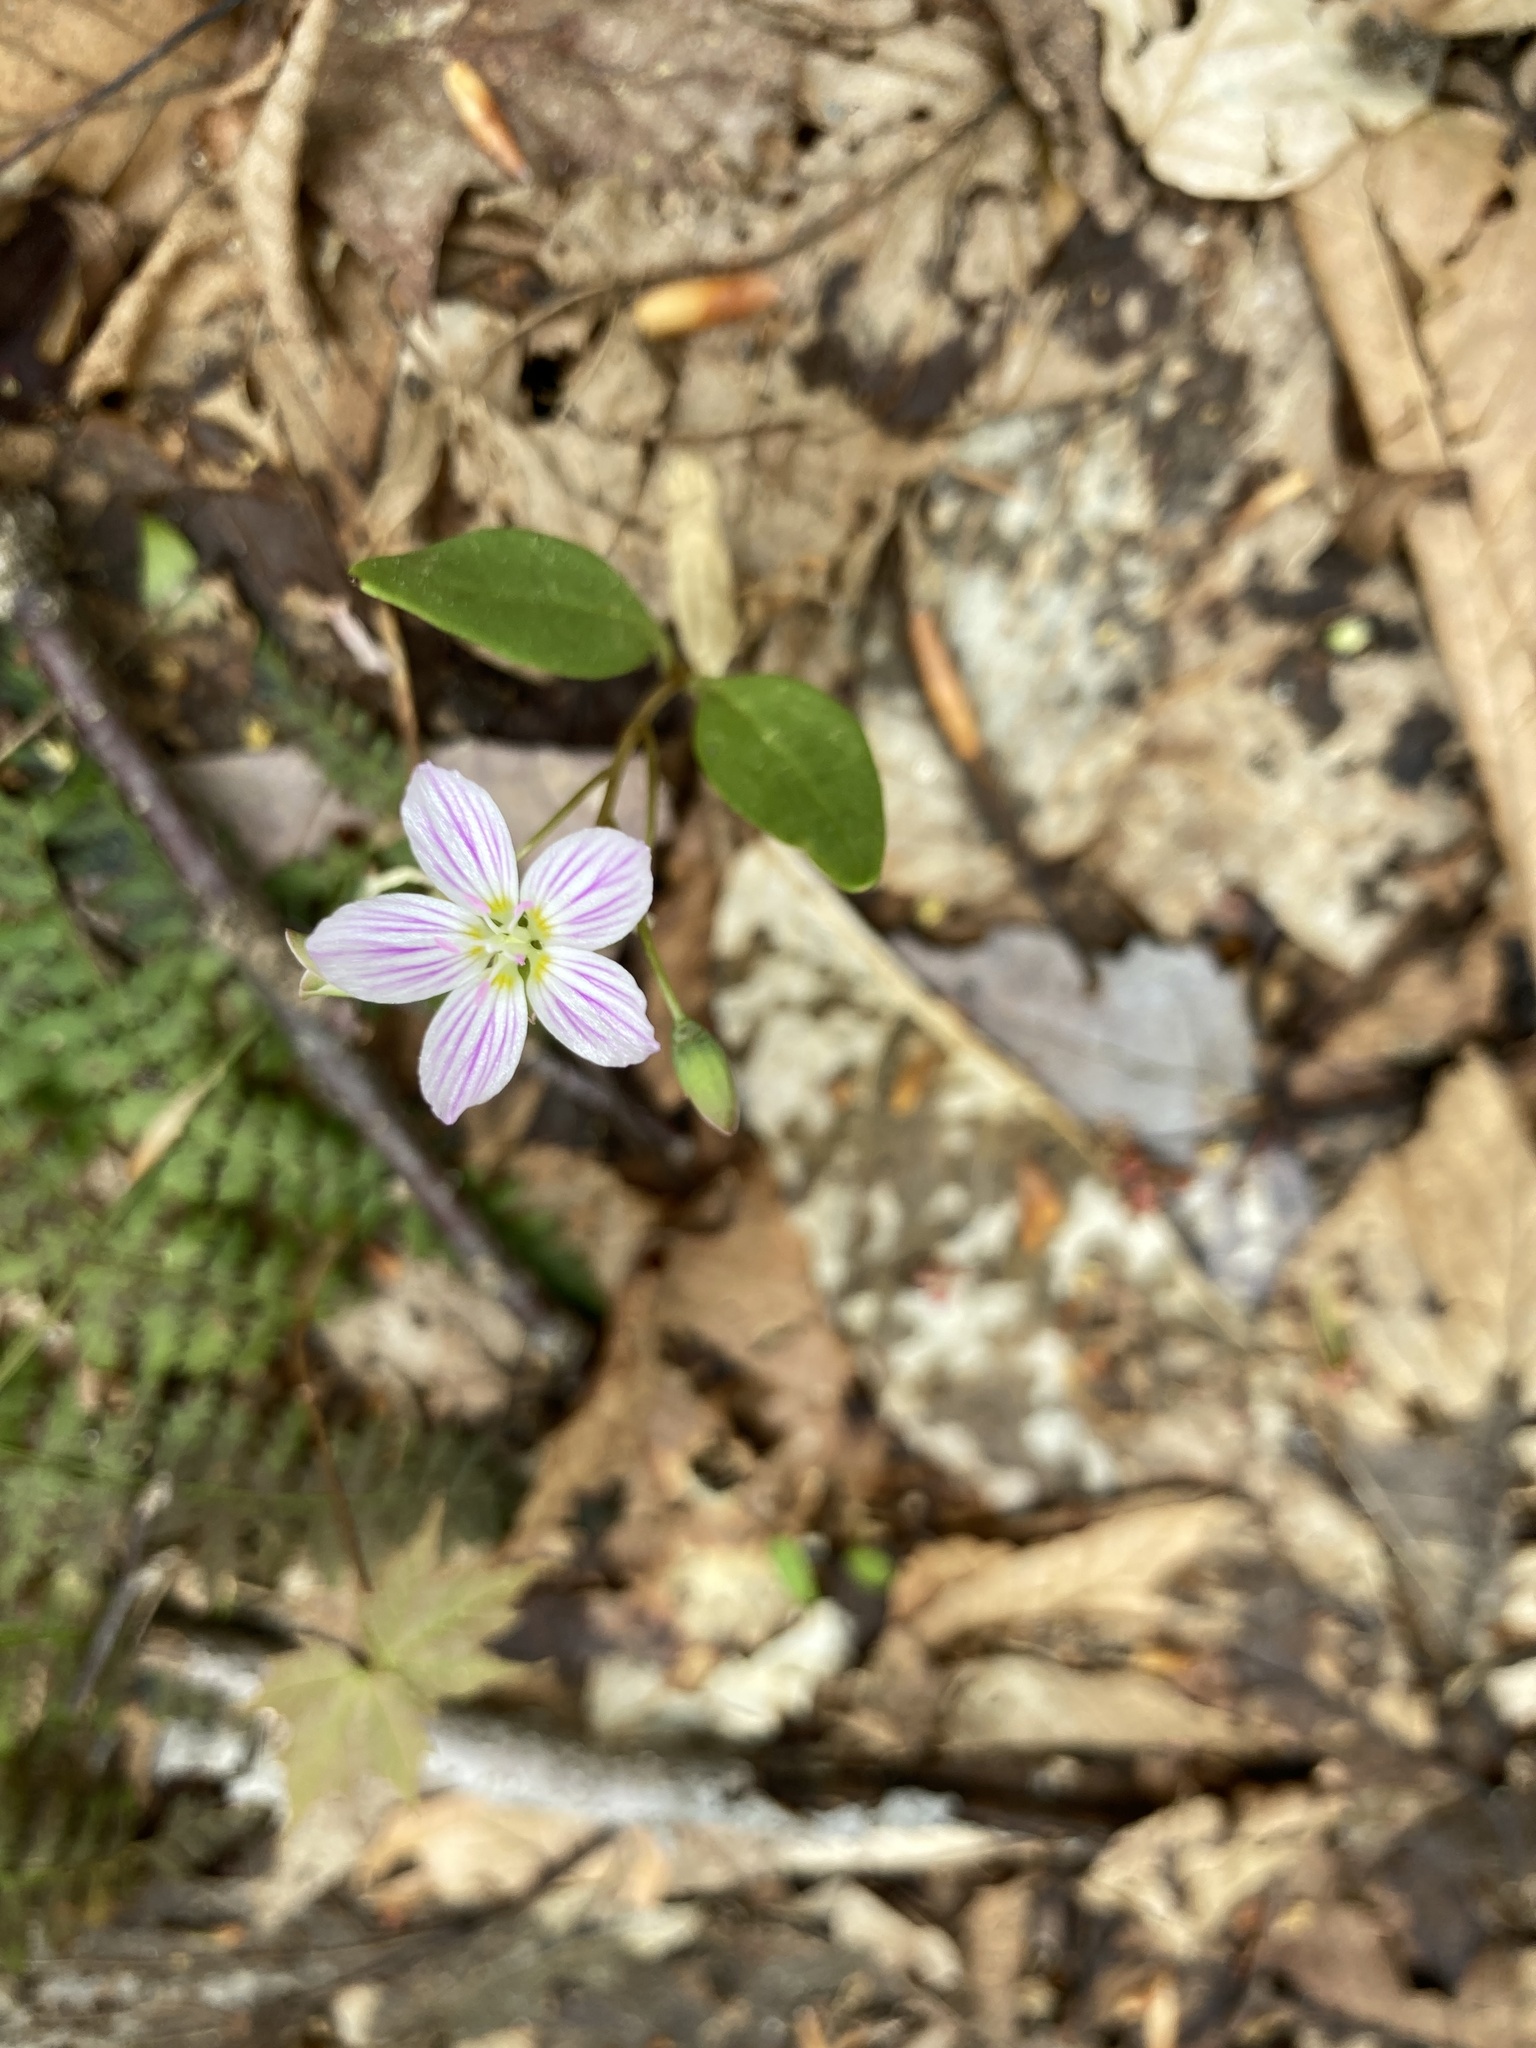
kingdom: Plantae
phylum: Tracheophyta
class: Magnoliopsida
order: Caryophyllales
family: Montiaceae
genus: Claytonia
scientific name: Claytonia caroliniana
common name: Carolina spring beauty
